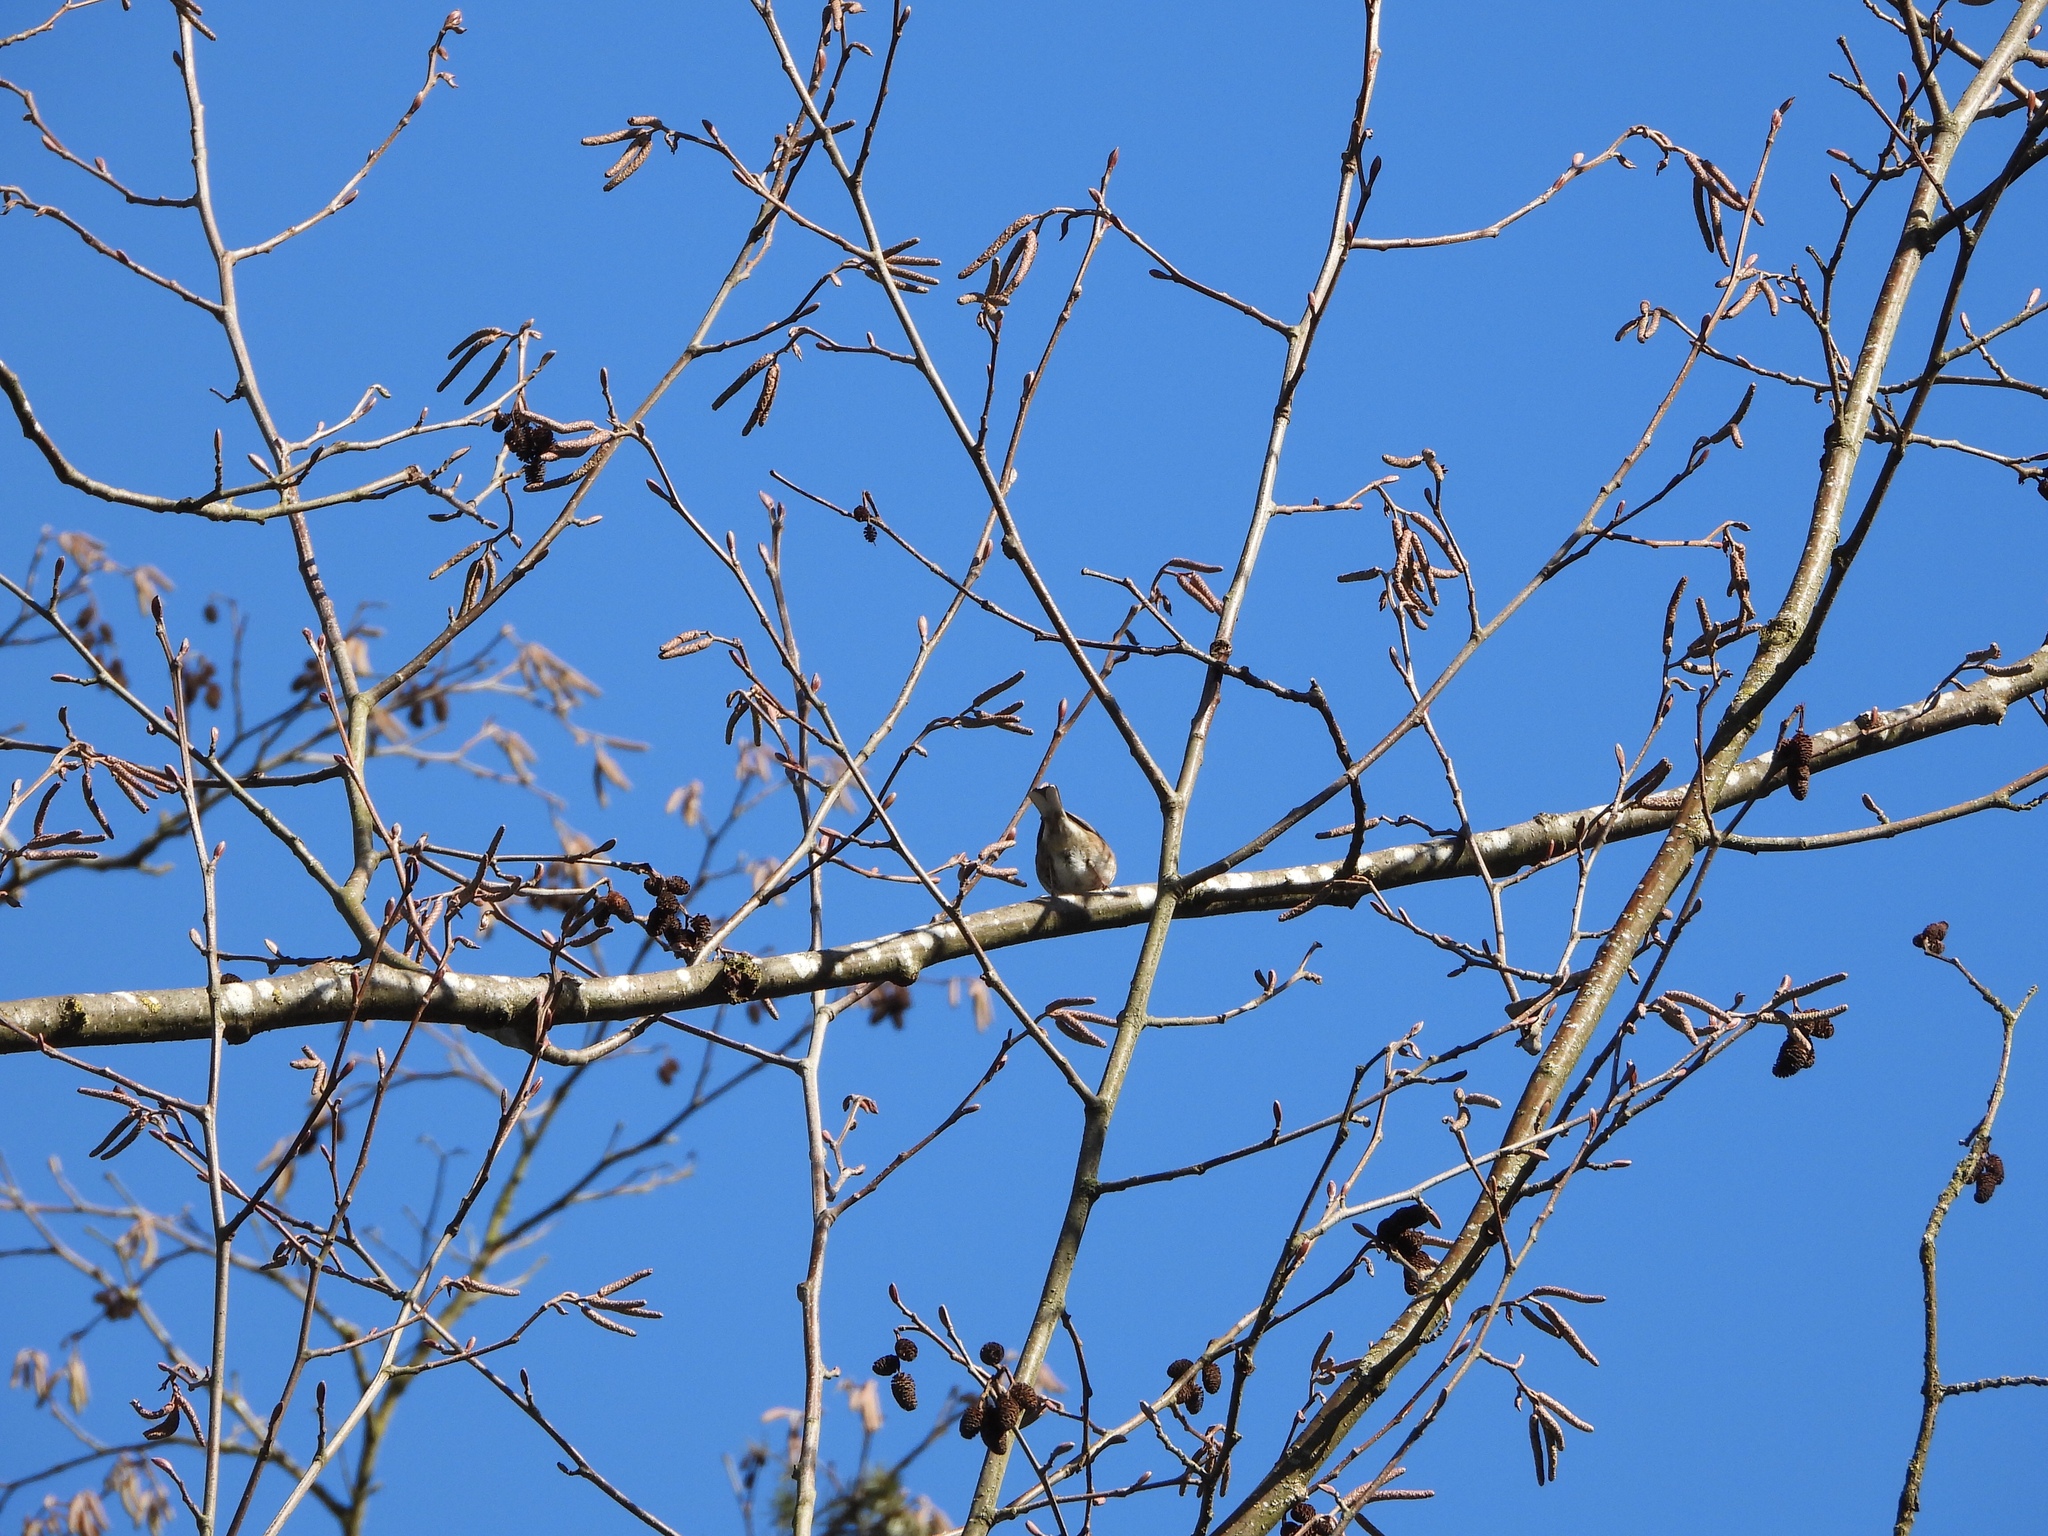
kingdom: Animalia
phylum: Chordata
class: Aves
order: Passeriformes
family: Passerellidae
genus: Junco
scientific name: Junco hyemalis
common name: Dark-eyed junco
